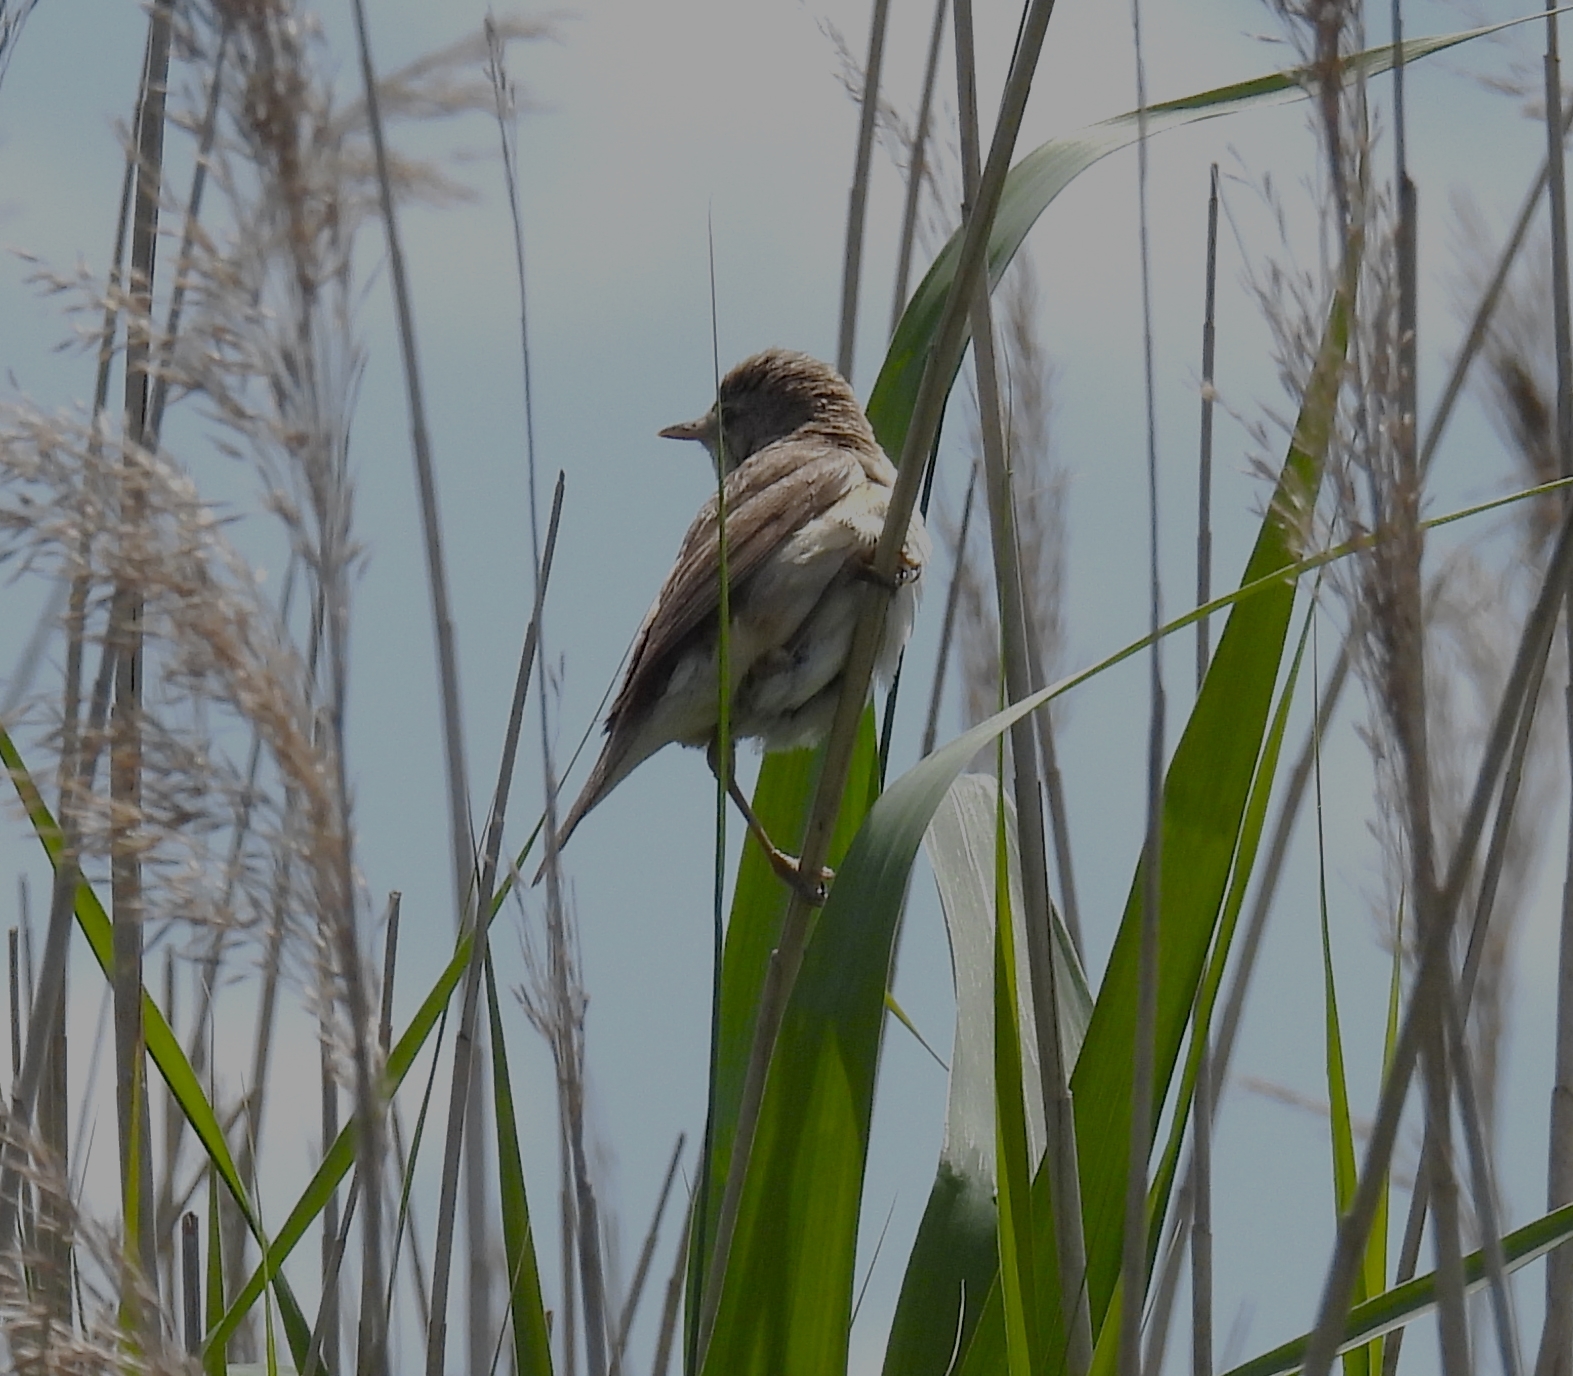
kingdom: Animalia
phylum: Chordata
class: Aves
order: Passeriformes
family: Acrocephalidae
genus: Acrocephalus
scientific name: Acrocephalus scirpaceus
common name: Eurasian reed warbler
